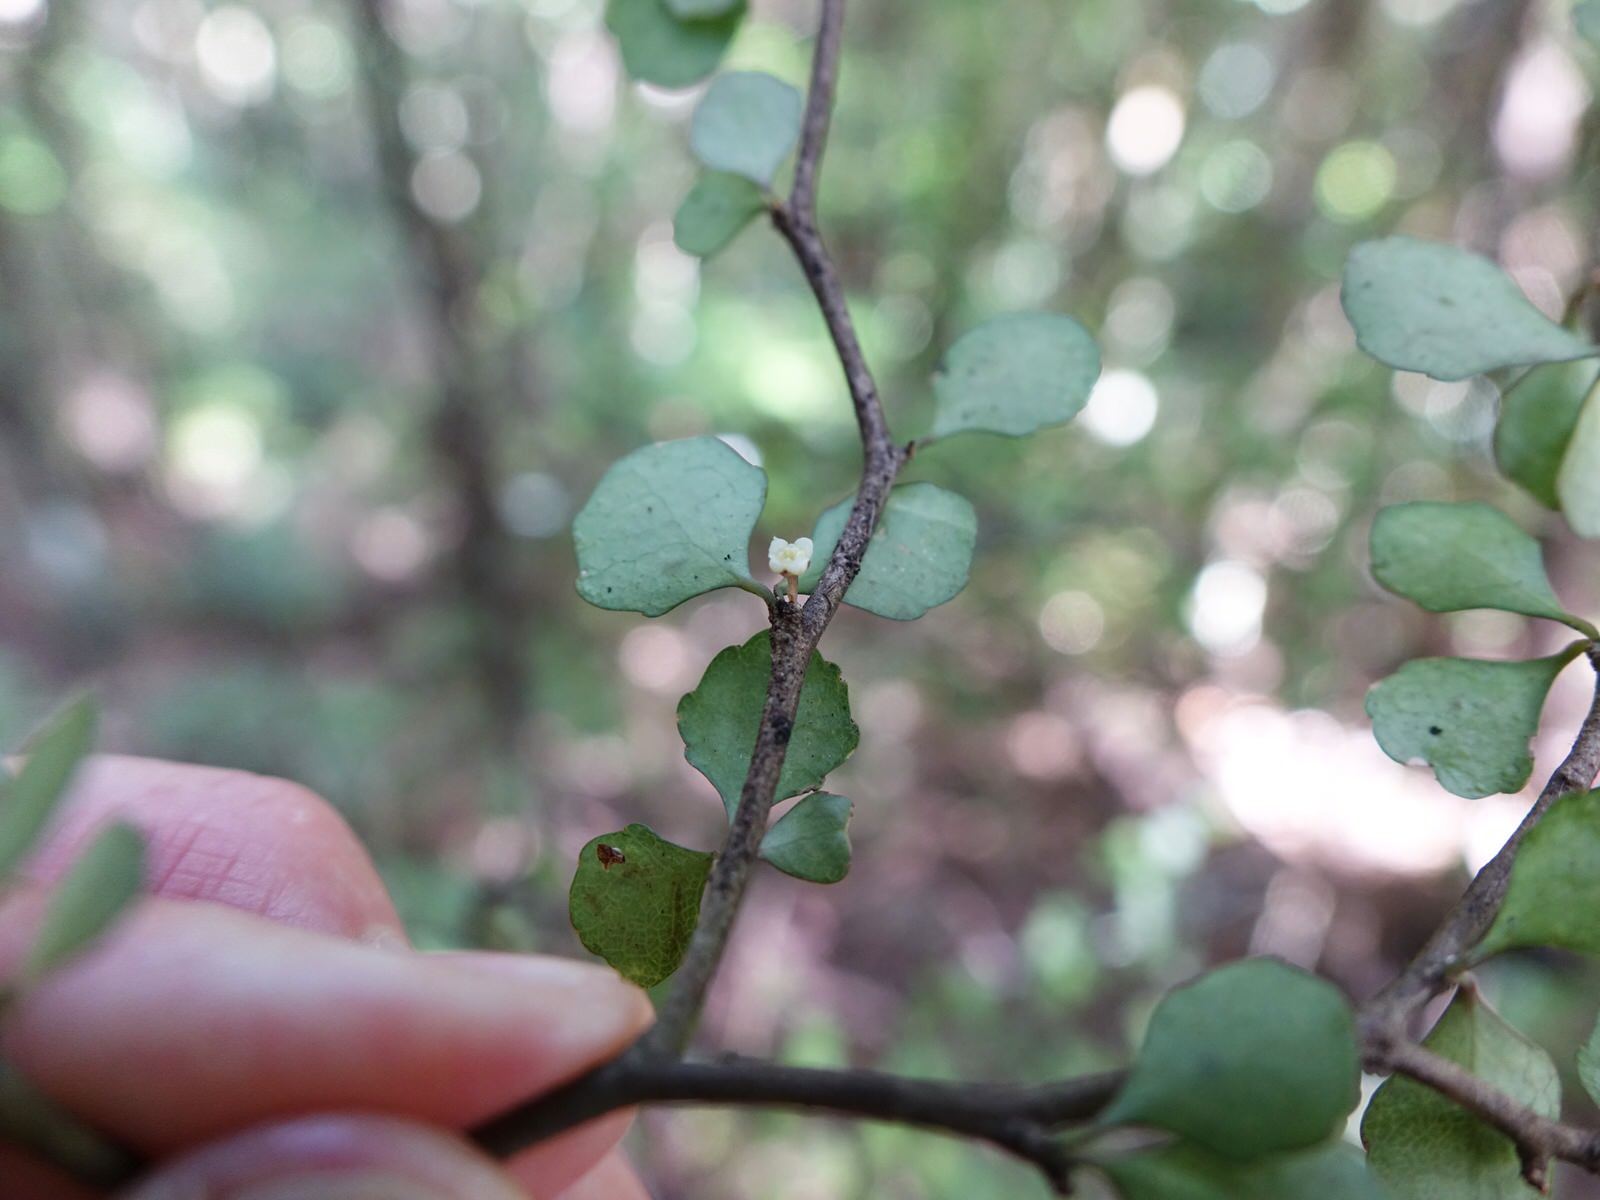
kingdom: Plantae
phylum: Tracheophyta
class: Magnoliopsida
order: Malpighiales
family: Violaceae
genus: Melicytus
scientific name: Melicytus micranthus
